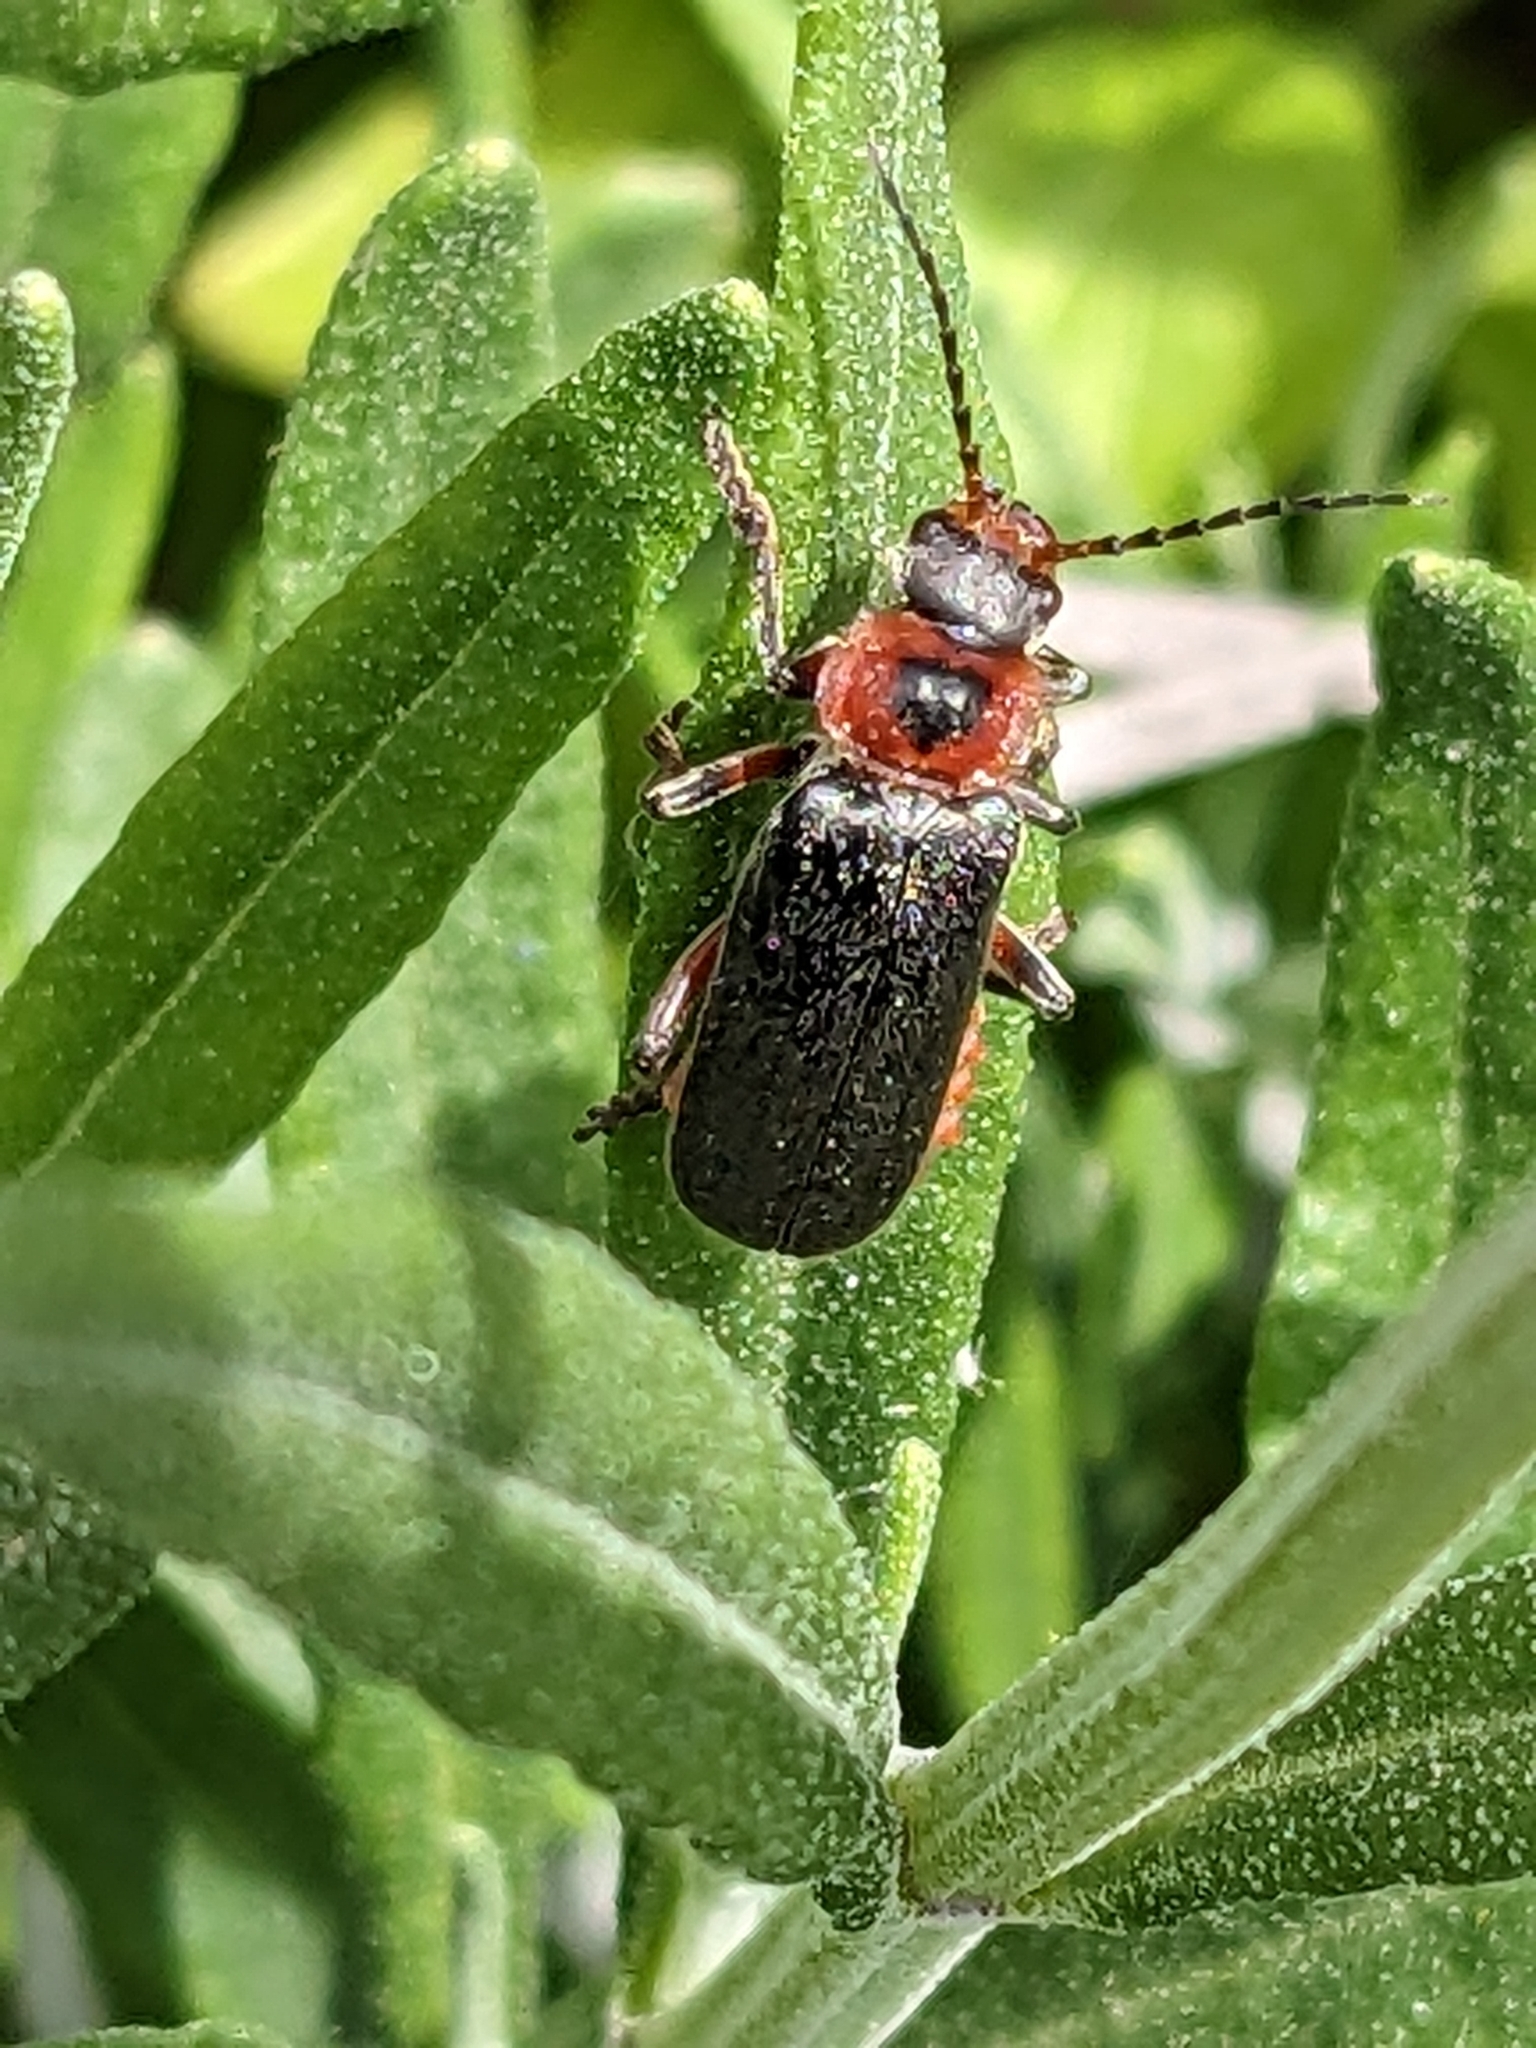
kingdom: Animalia
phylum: Arthropoda
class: Insecta
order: Coleoptera
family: Cantharidae
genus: Cantharis
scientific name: Cantharis rustica
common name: Soldier beetle
